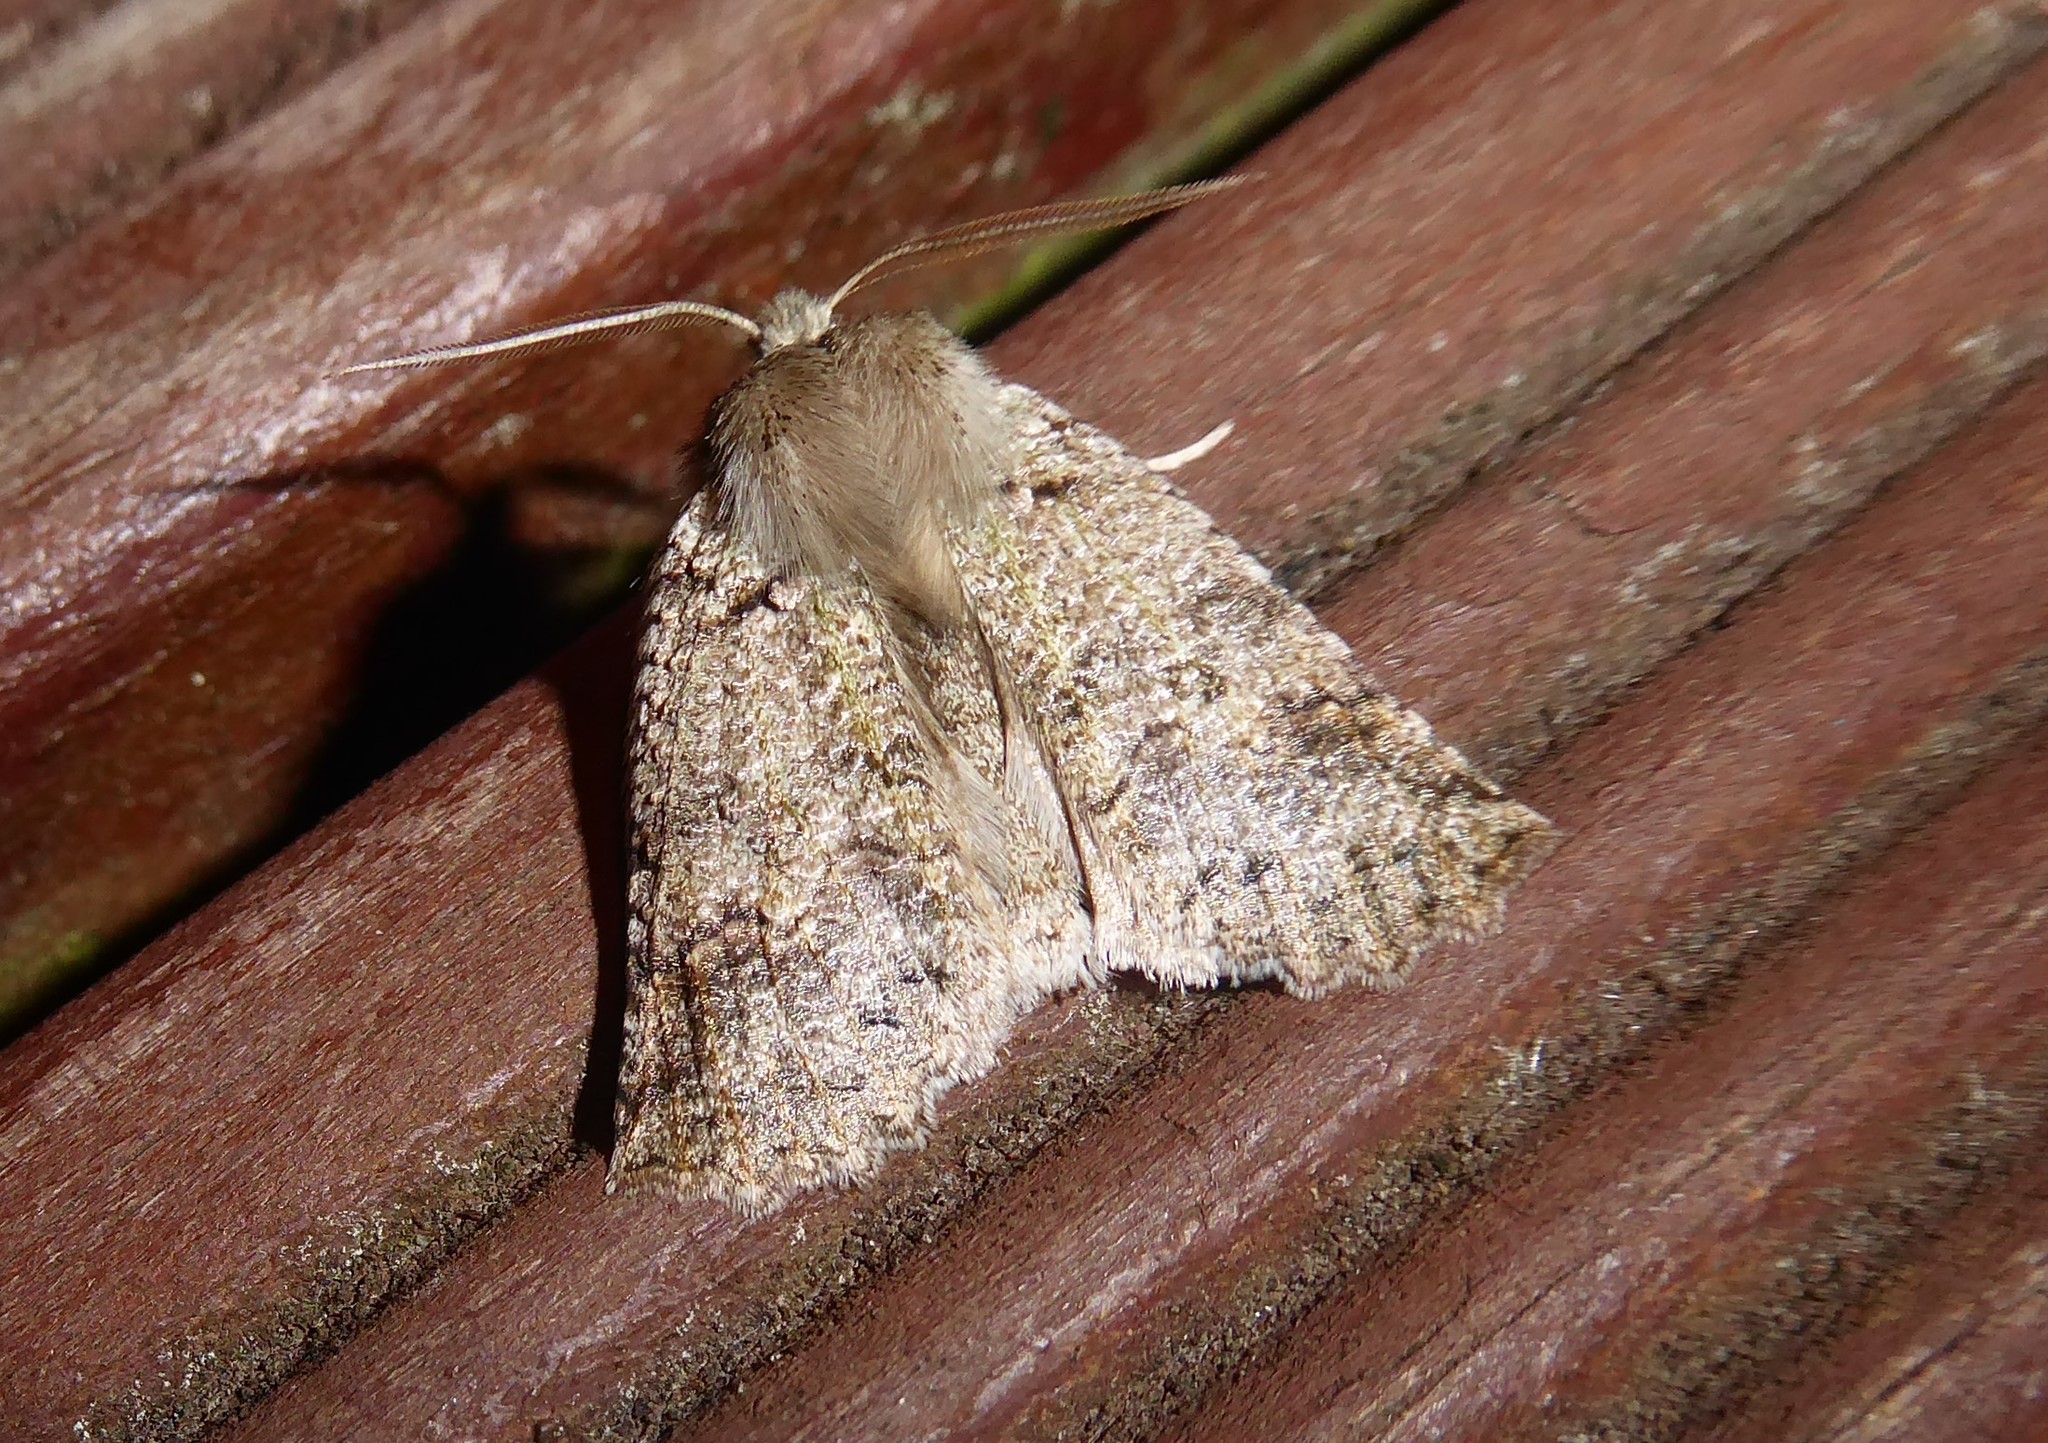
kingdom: Animalia
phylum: Arthropoda
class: Insecta
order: Lepidoptera
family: Geometridae
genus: Declana
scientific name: Declana floccosa
